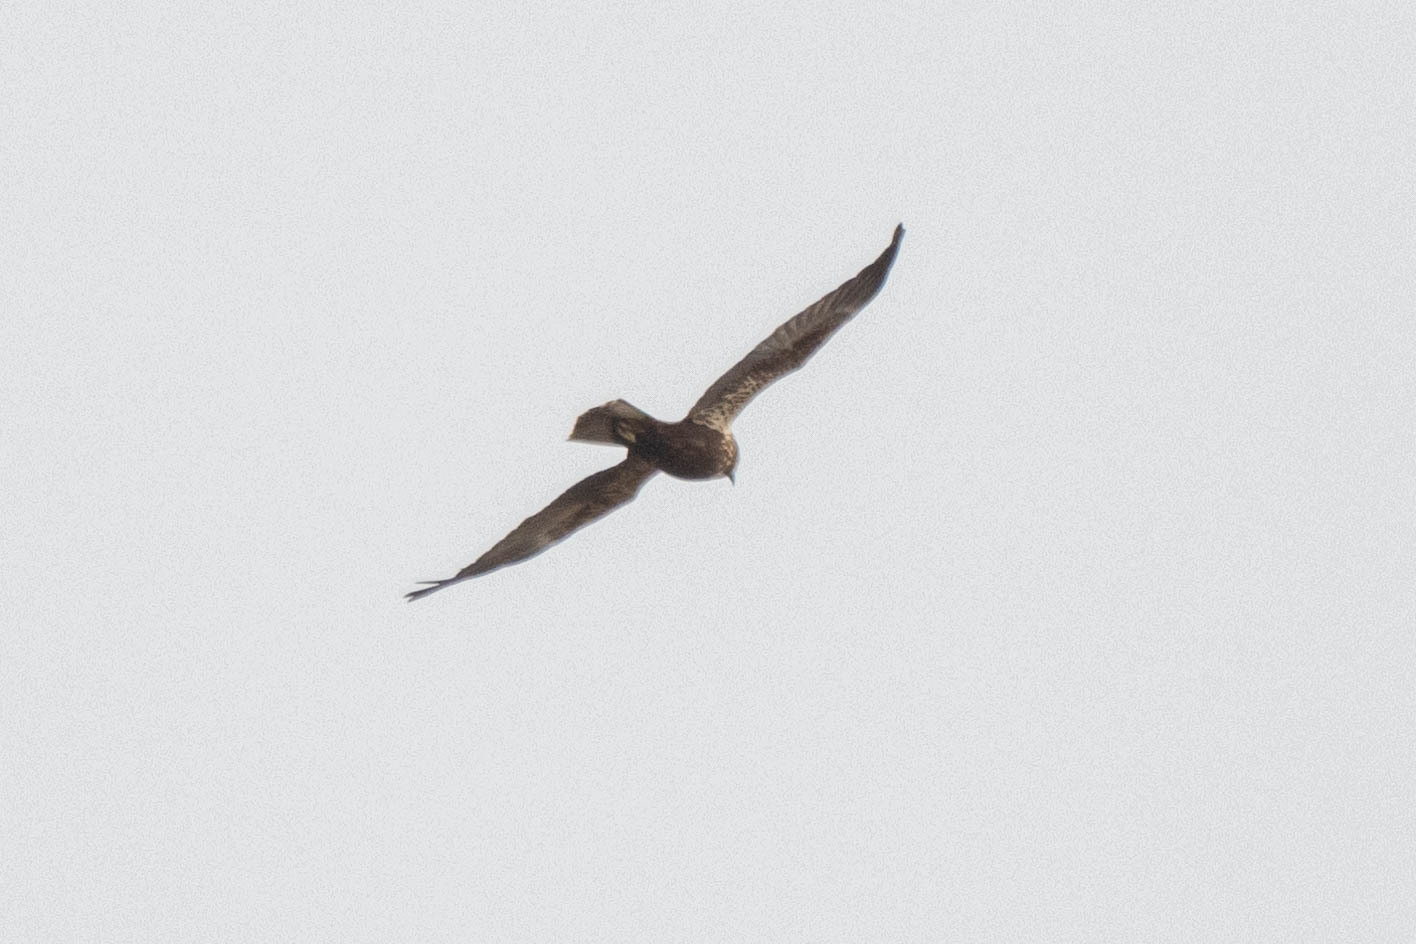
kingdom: Animalia
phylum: Chordata
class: Aves
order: Accipitriformes
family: Accipitridae
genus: Circus
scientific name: Circus aeruginosus
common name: Western marsh harrier
